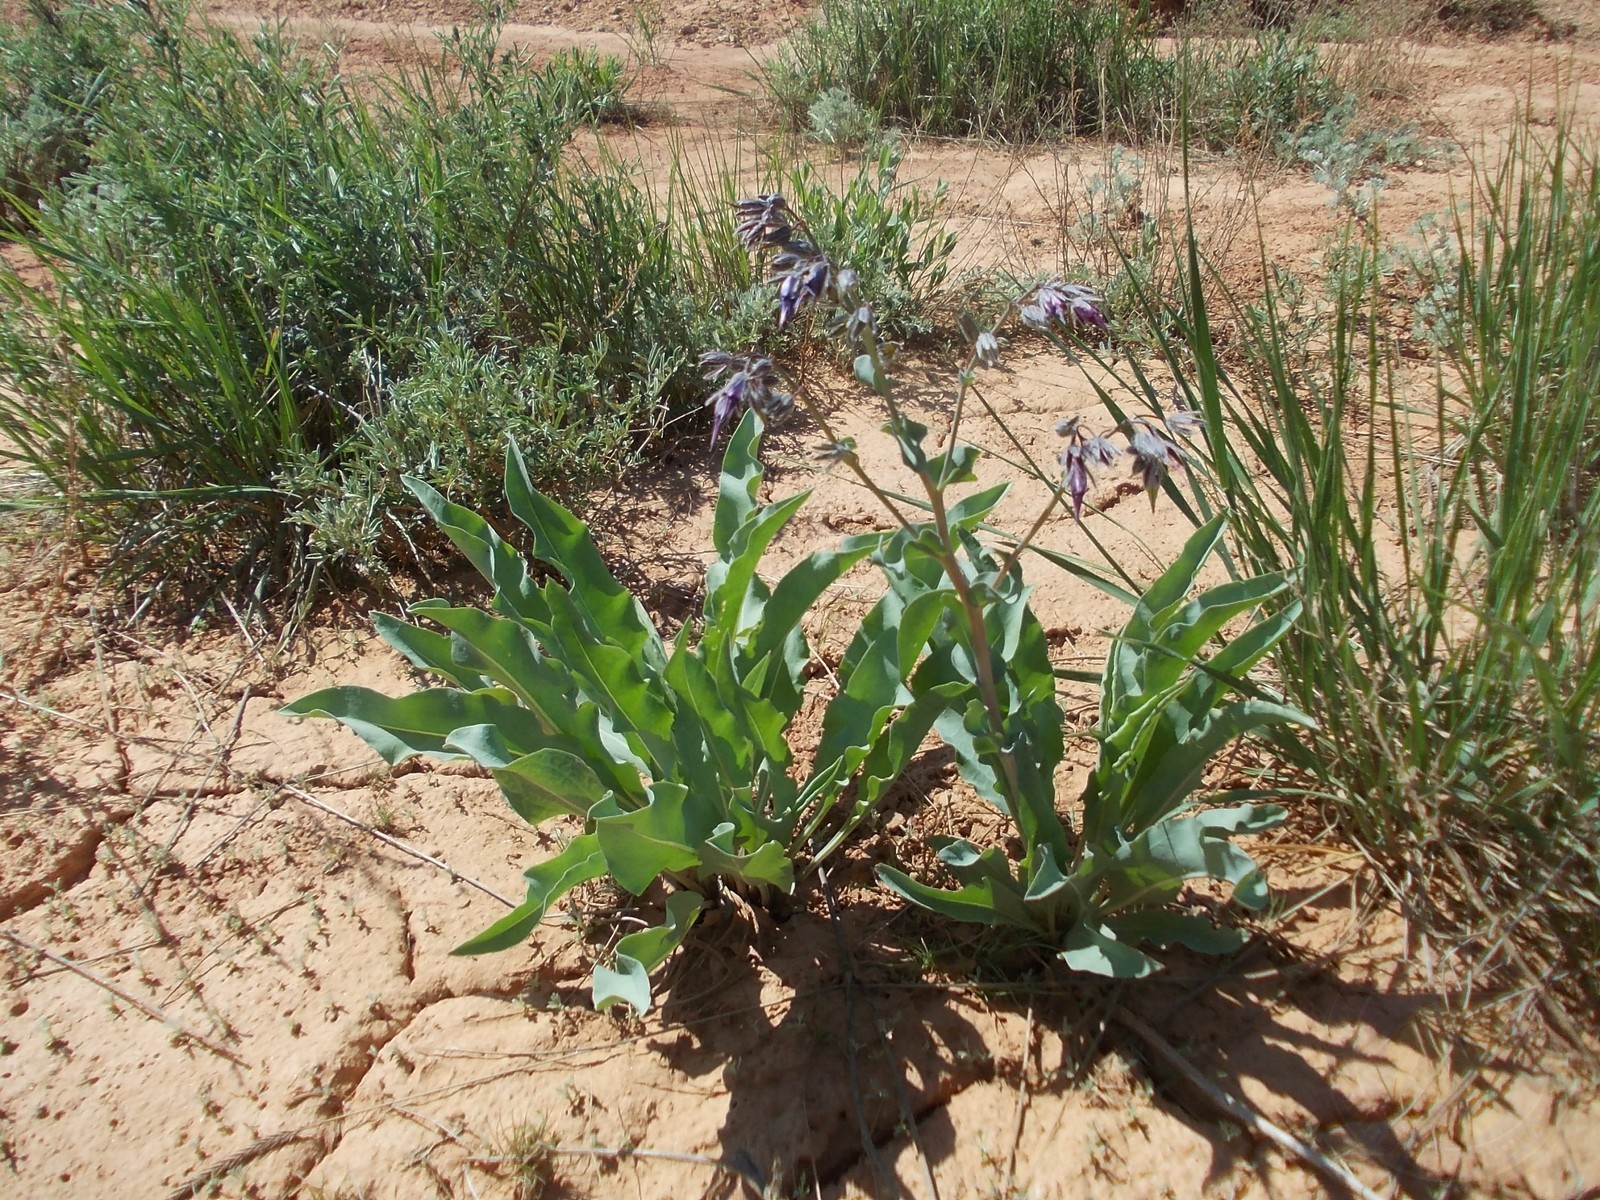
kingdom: Plantae
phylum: Tracheophyta
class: Magnoliopsida
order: Boraginales
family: Boraginaceae
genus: Rindera
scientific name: Rindera tetraspis
